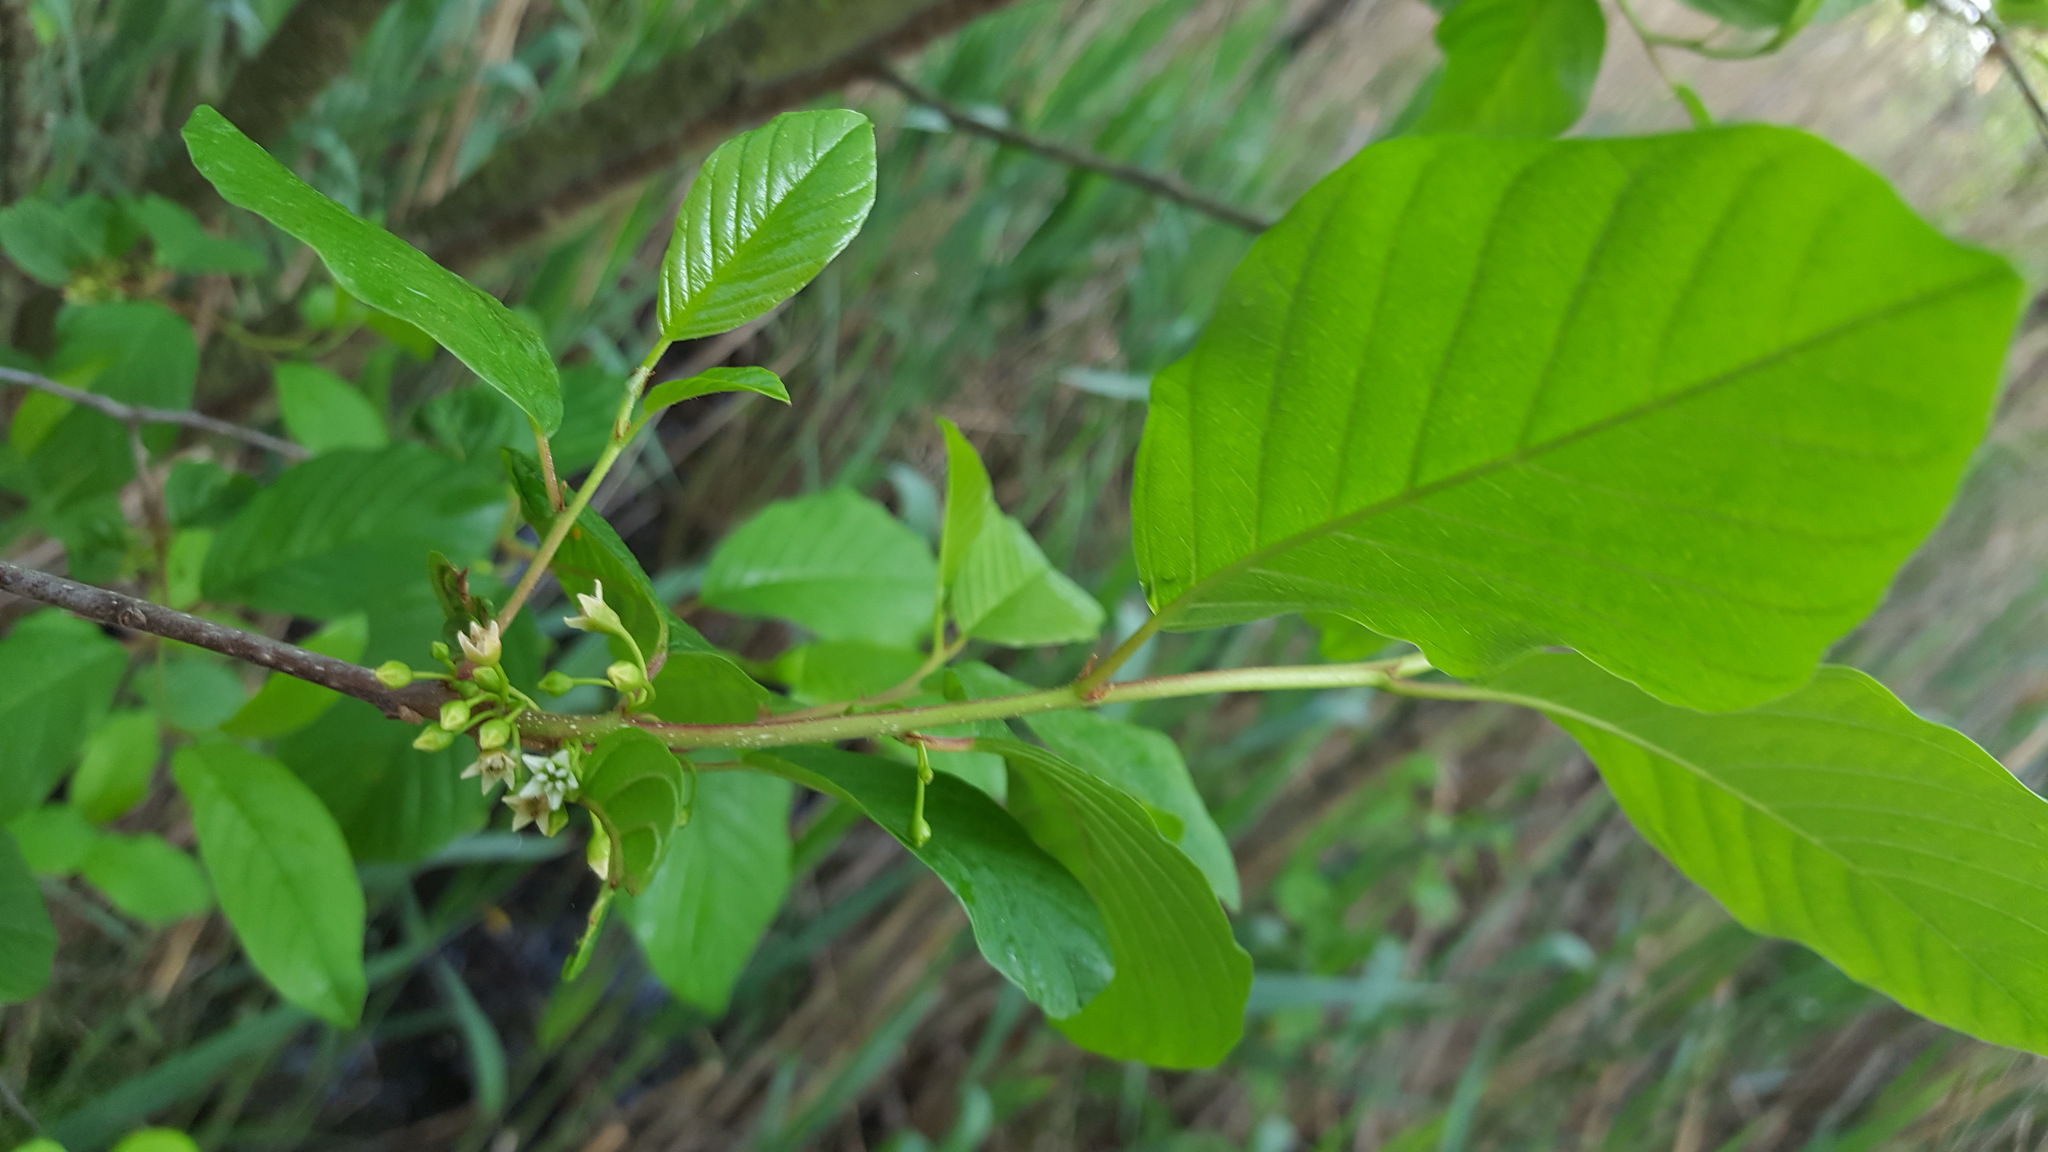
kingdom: Plantae
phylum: Tracheophyta
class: Magnoliopsida
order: Rosales
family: Rhamnaceae
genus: Frangula
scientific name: Frangula alnus
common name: Alder buckthorn
